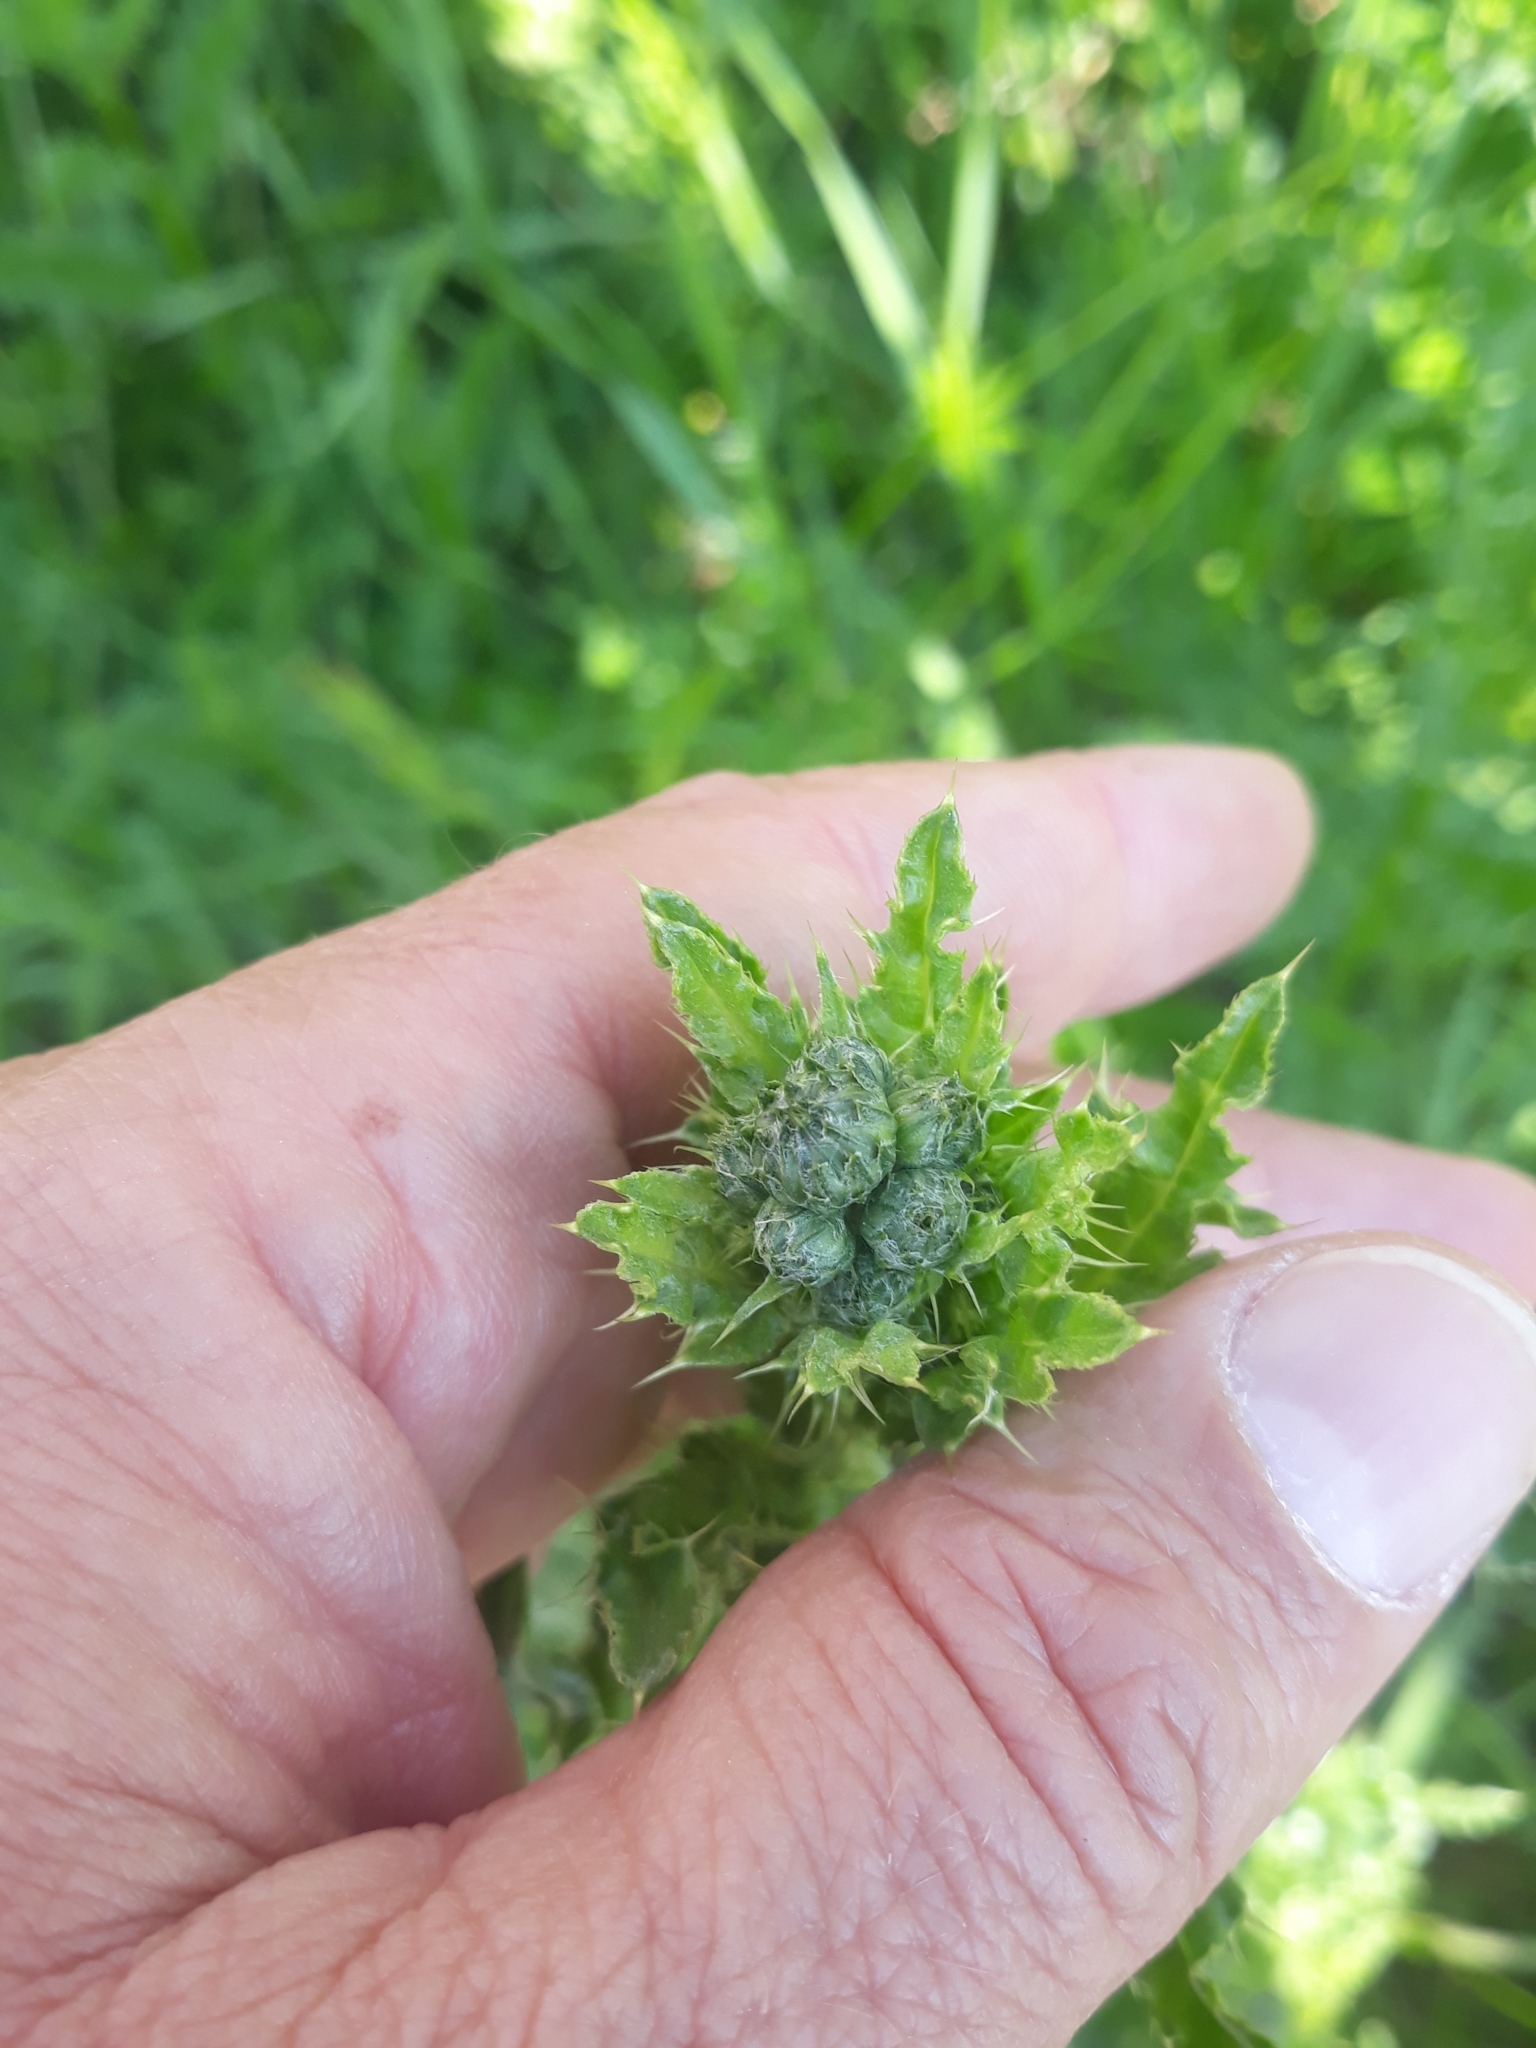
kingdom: Plantae
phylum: Tracheophyta
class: Magnoliopsida
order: Asterales
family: Asteraceae
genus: Cirsium
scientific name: Cirsium arvense
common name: Creeping thistle
